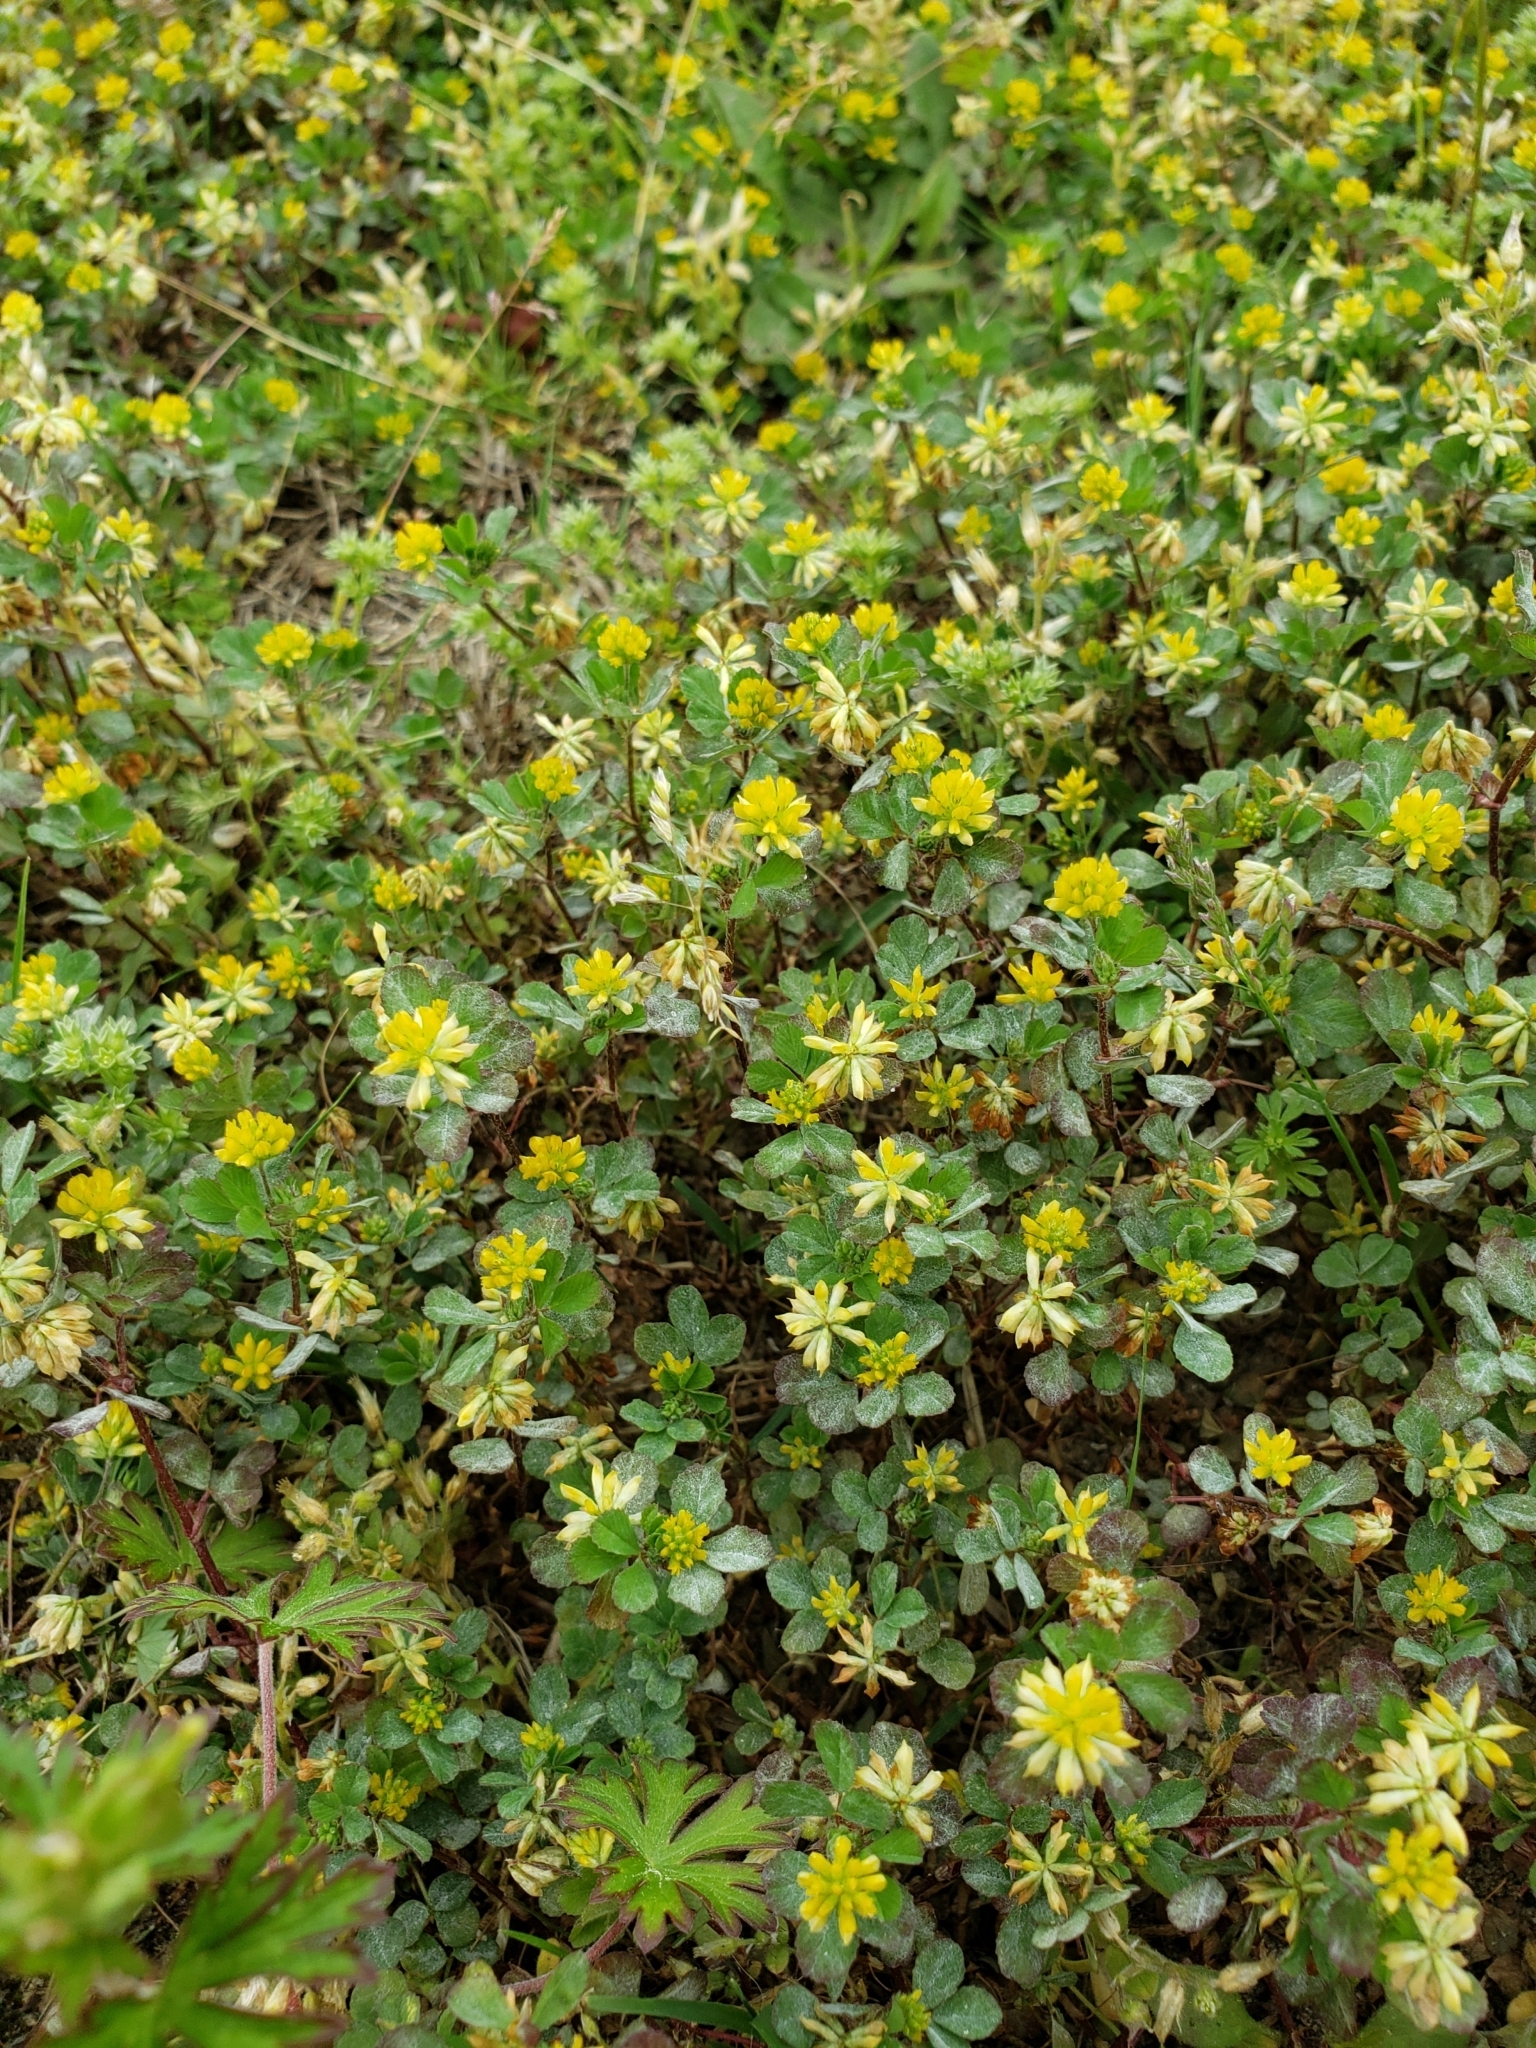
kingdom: Plantae
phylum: Tracheophyta
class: Magnoliopsida
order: Fabales
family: Fabaceae
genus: Trifolium
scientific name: Trifolium dubium
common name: Suckling clover
